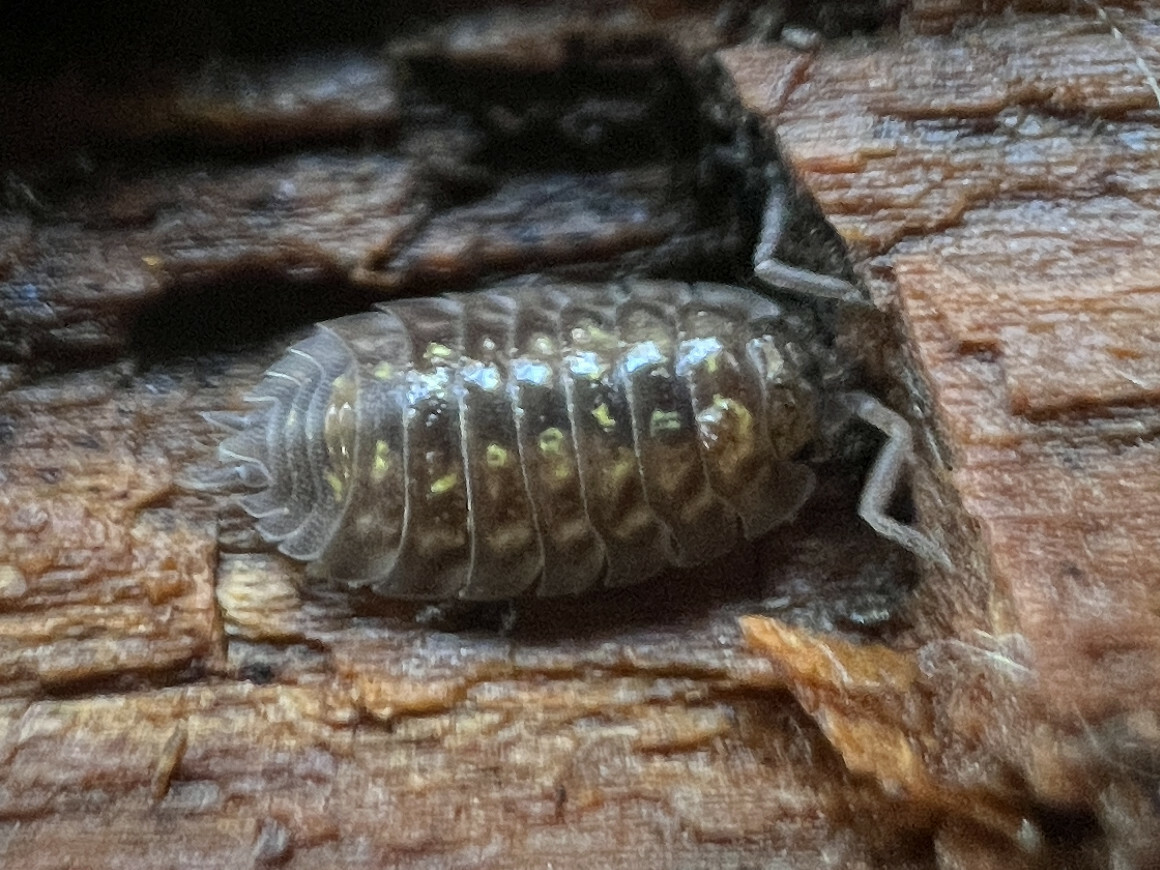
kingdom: Animalia
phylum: Arthropoda
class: Malacostraca
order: Isopoda
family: Oniscidae
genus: Oniscus
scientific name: Oniscus asellus
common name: Common shiny woodlouse
